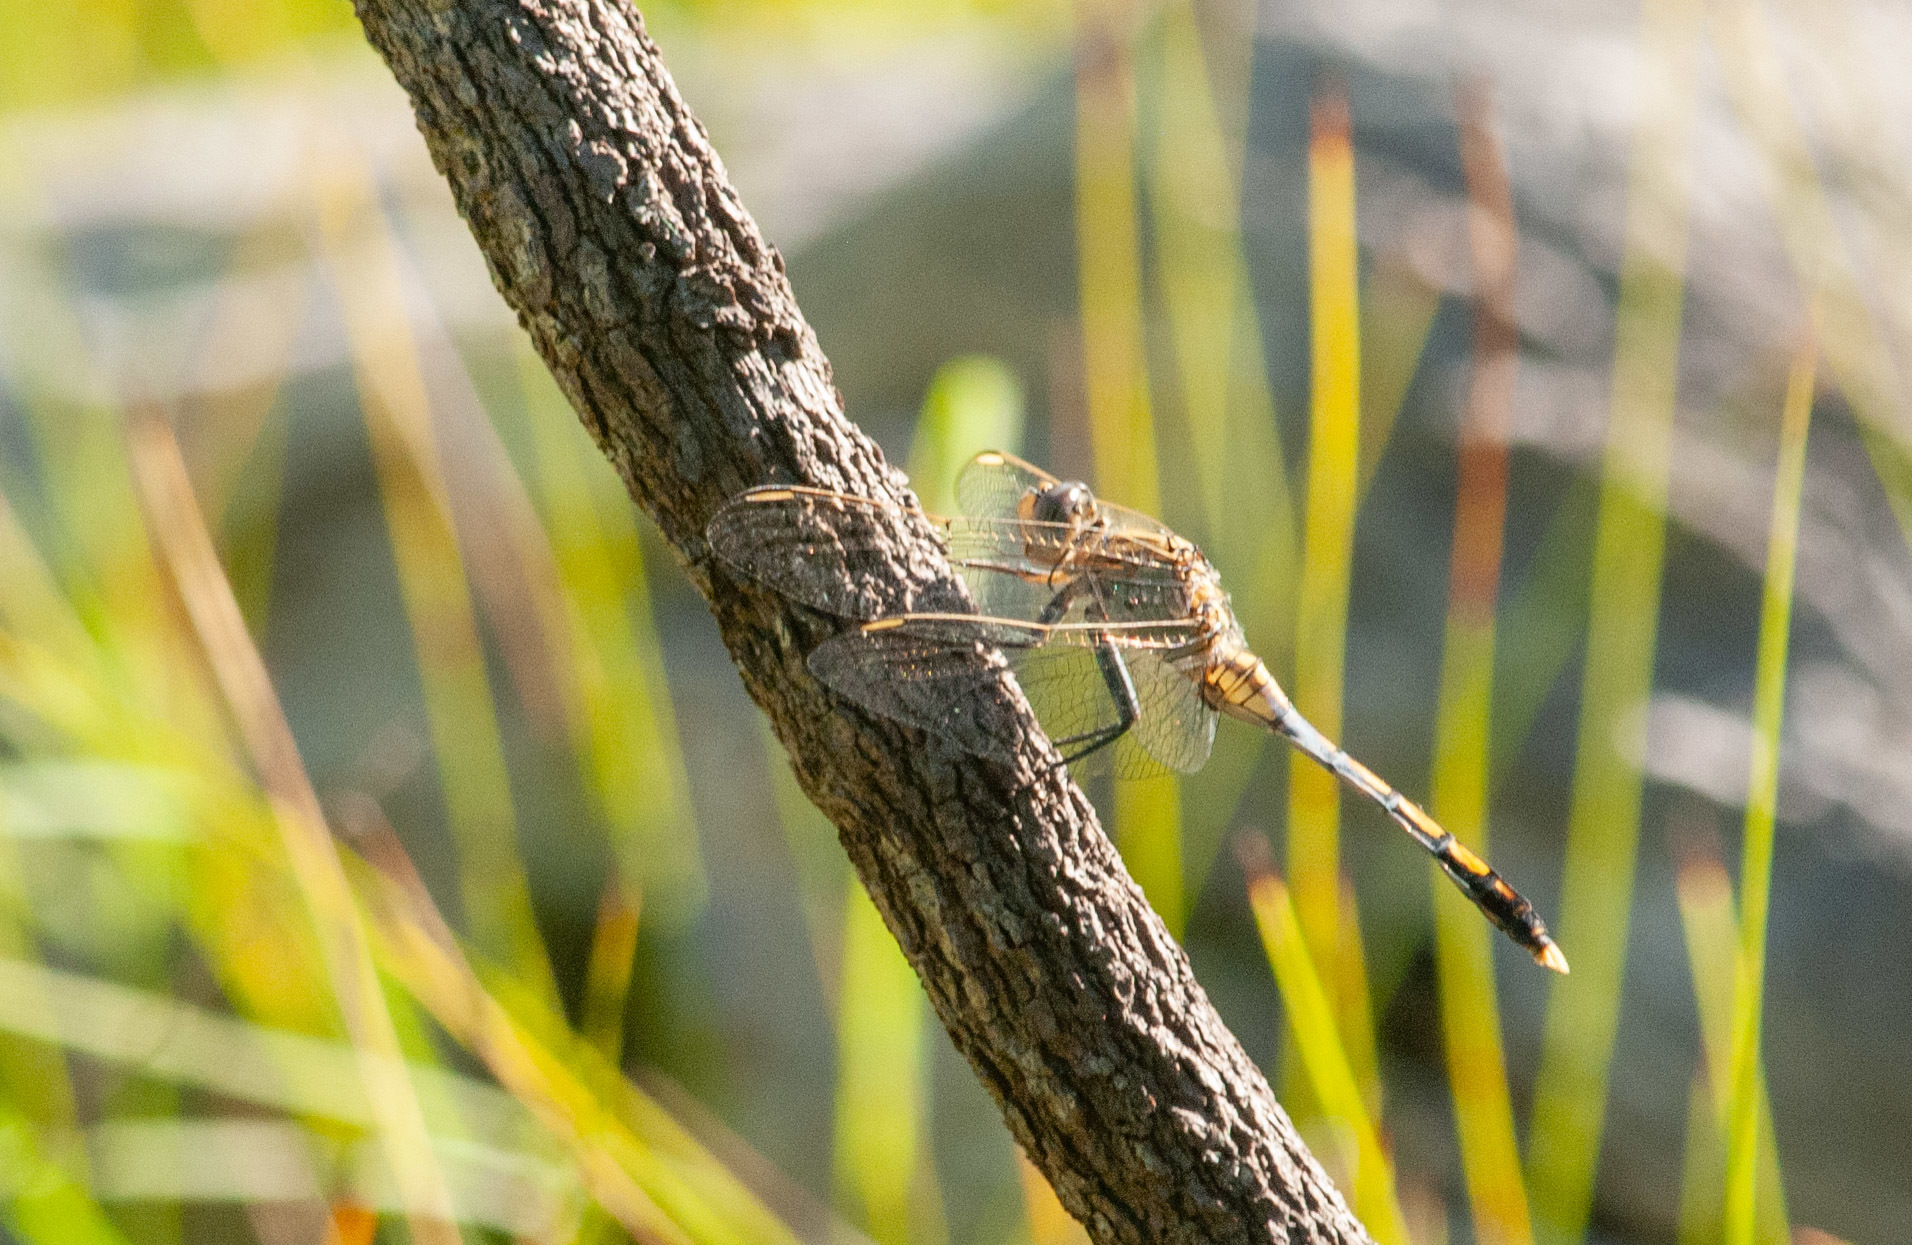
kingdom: Animalia
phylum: Arthropoda
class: Insecta
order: Odonata
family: Libellulidae
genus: Orthetrum
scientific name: Orthetrum caledonicum
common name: Blue skimmer
